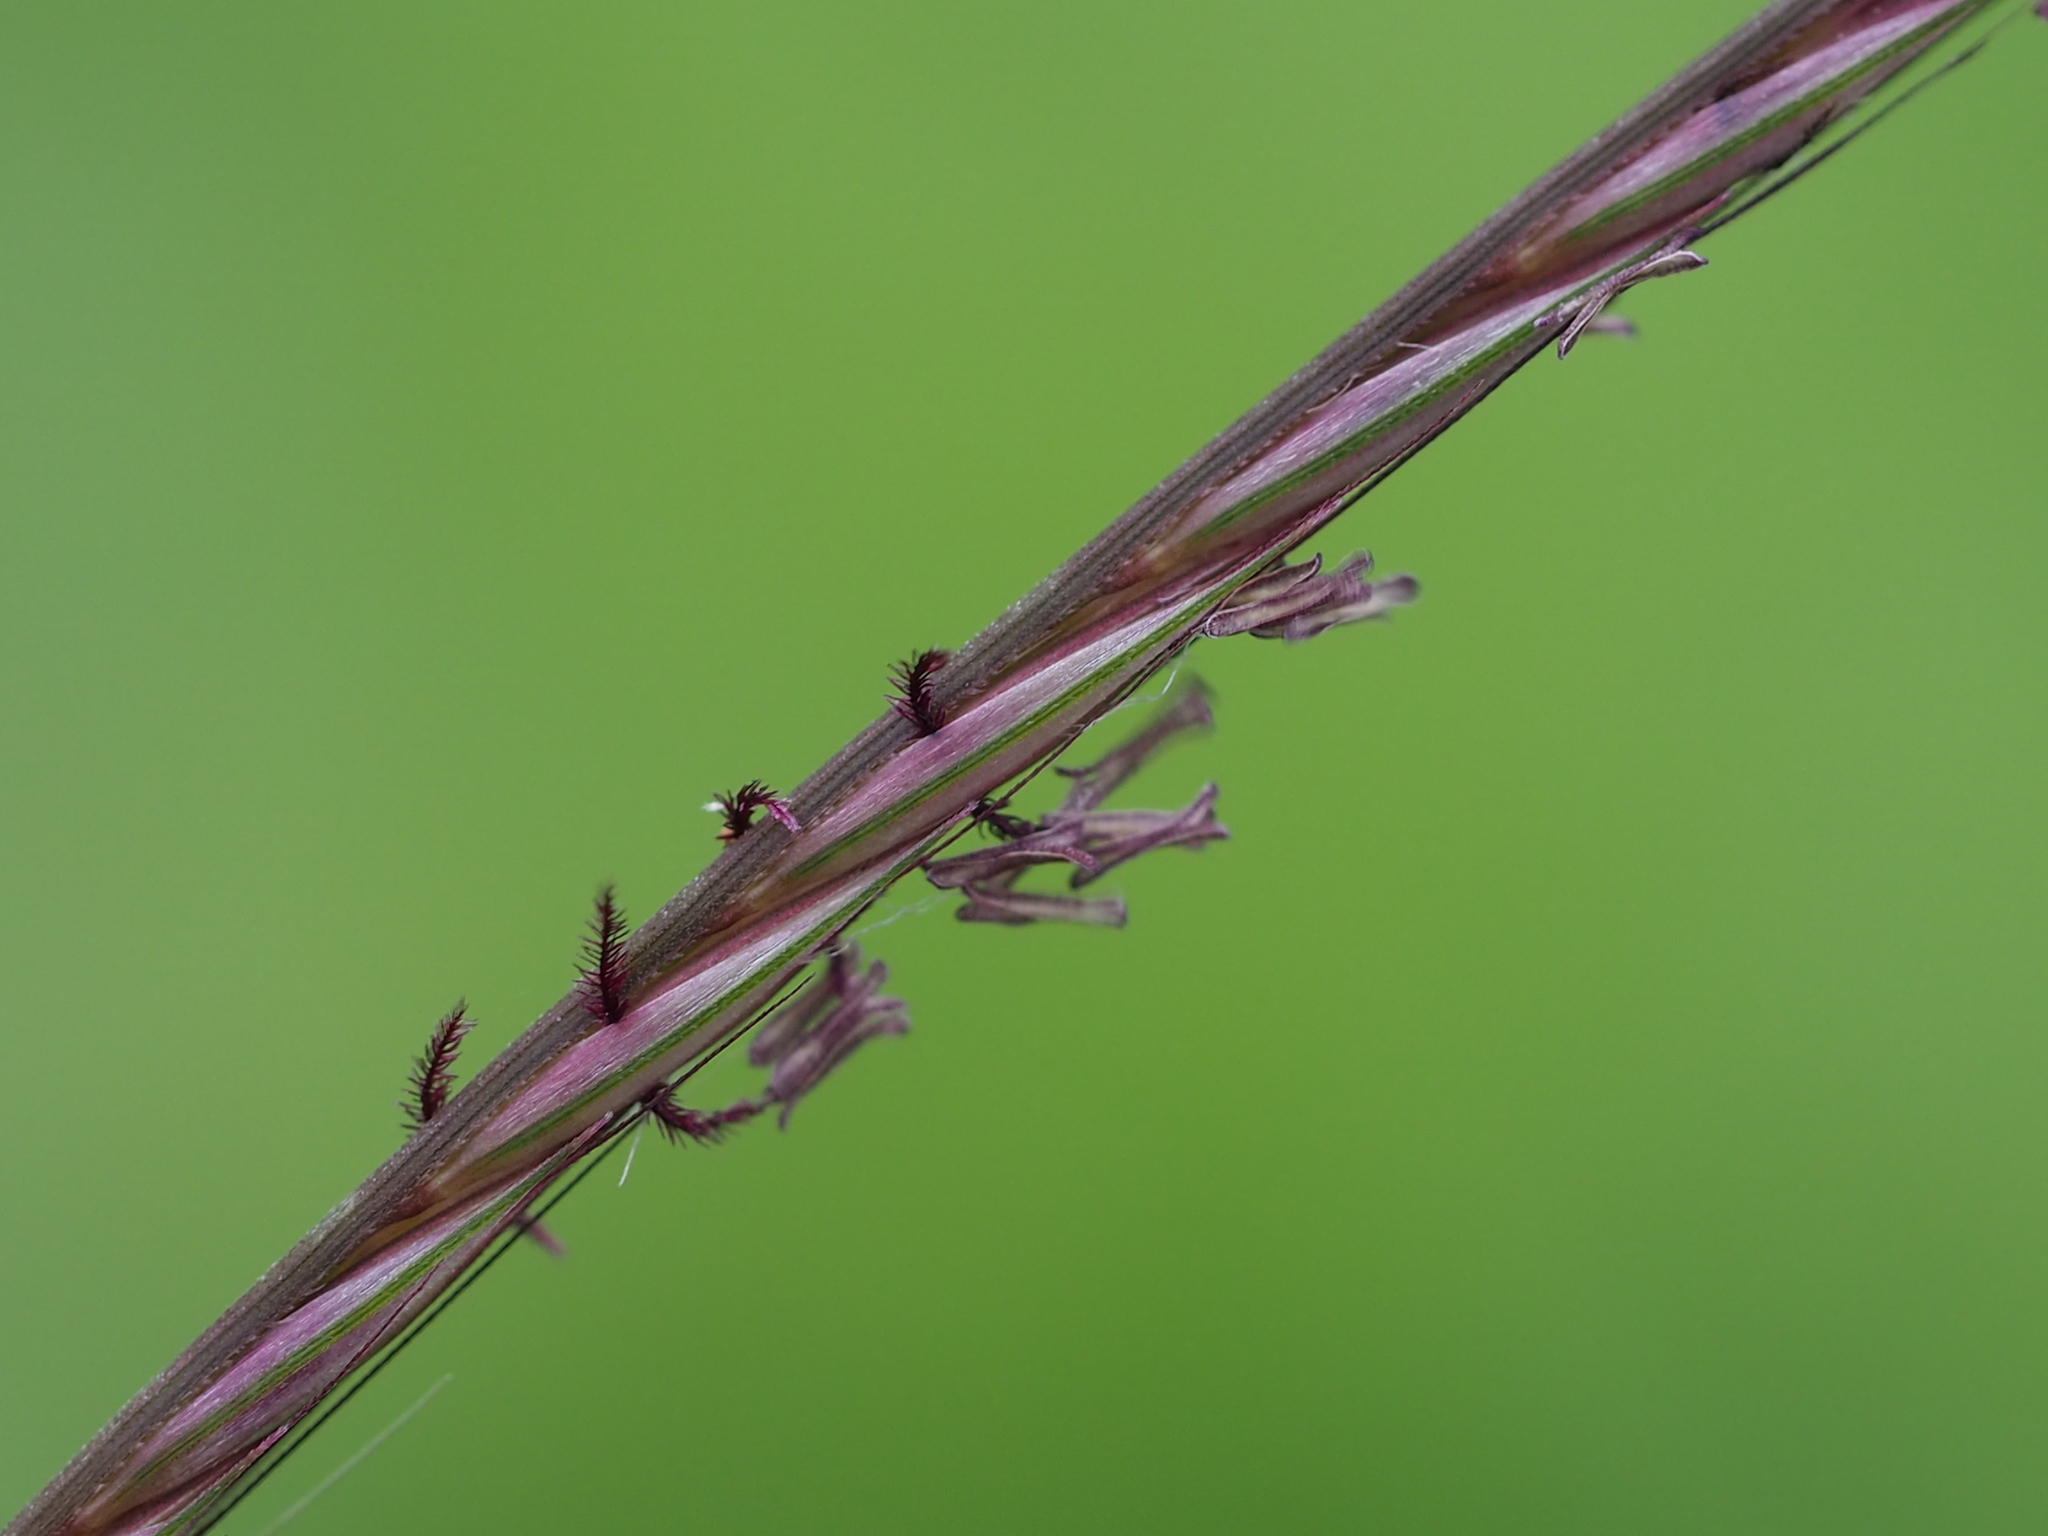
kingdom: Plantae
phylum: Tracheophyta
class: Liliopsida
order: Poales
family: Poaceae
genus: Enteropogon
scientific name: Enteropogon dolichostachyus
